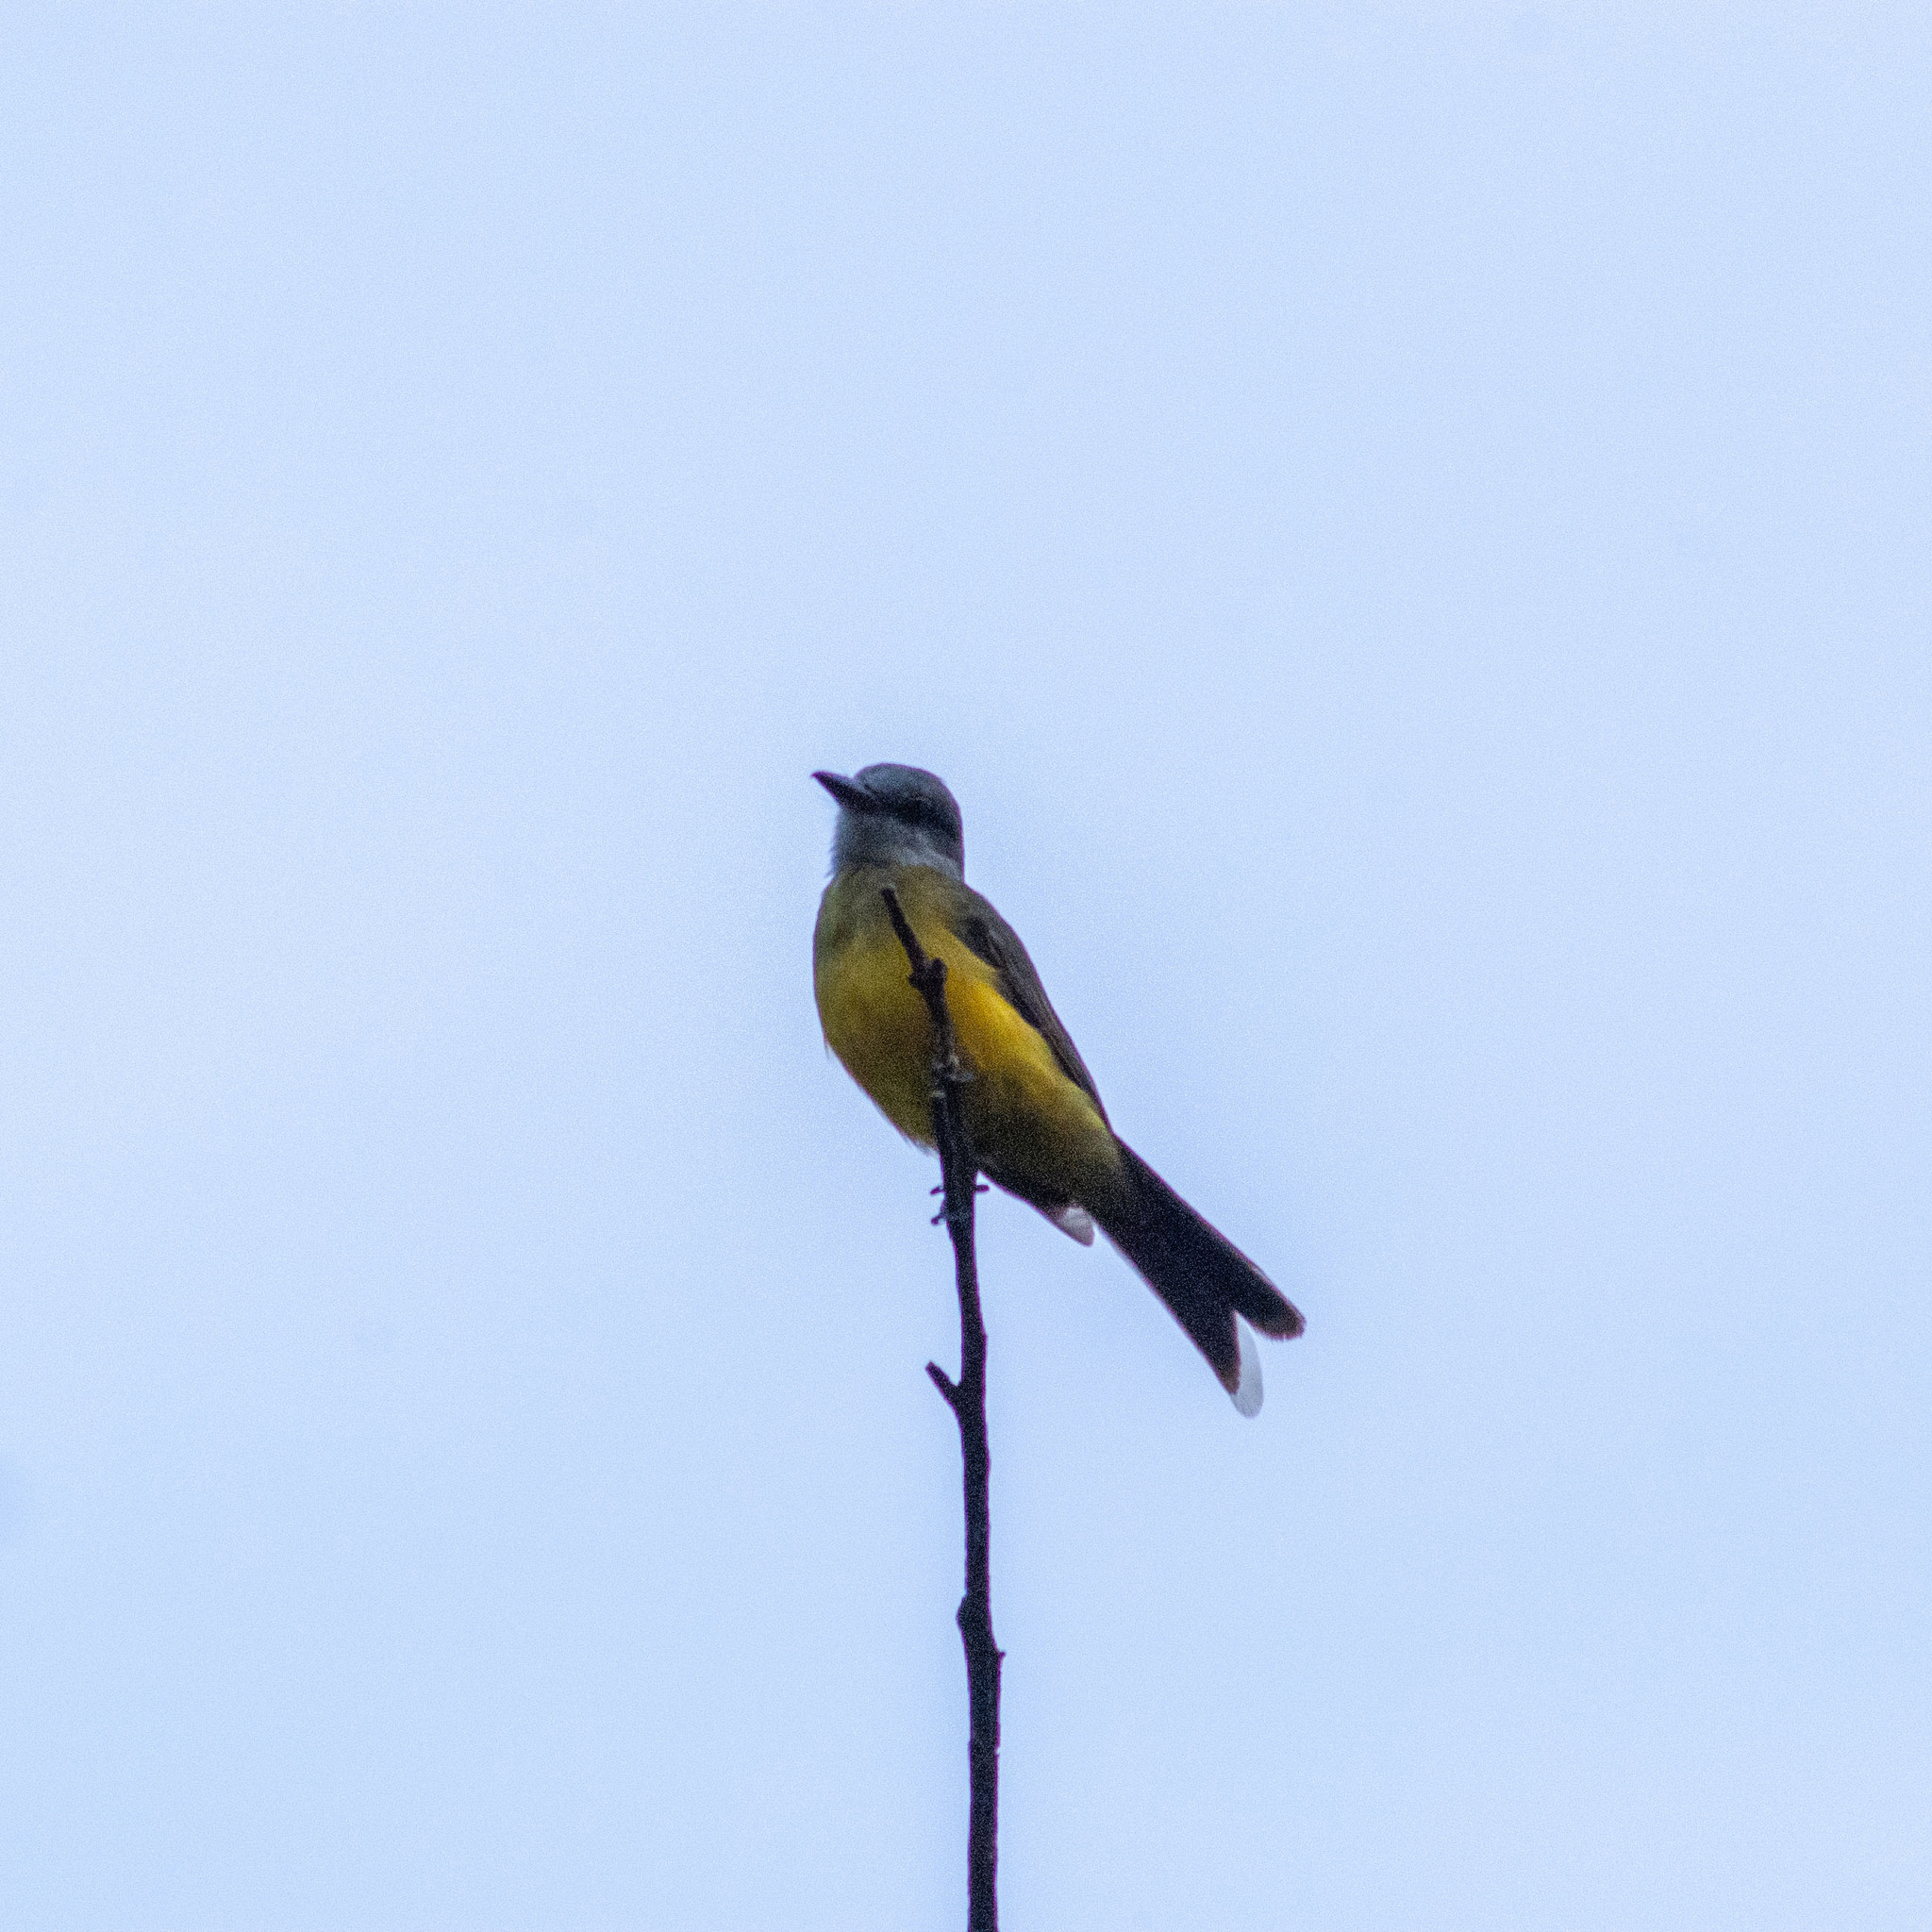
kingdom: Animalia
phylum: Chordata
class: Aves
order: Passeriformes
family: Tyrannidae
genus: Tyrannus
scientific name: Tyrannus melancholicus
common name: Tropical kingbird
